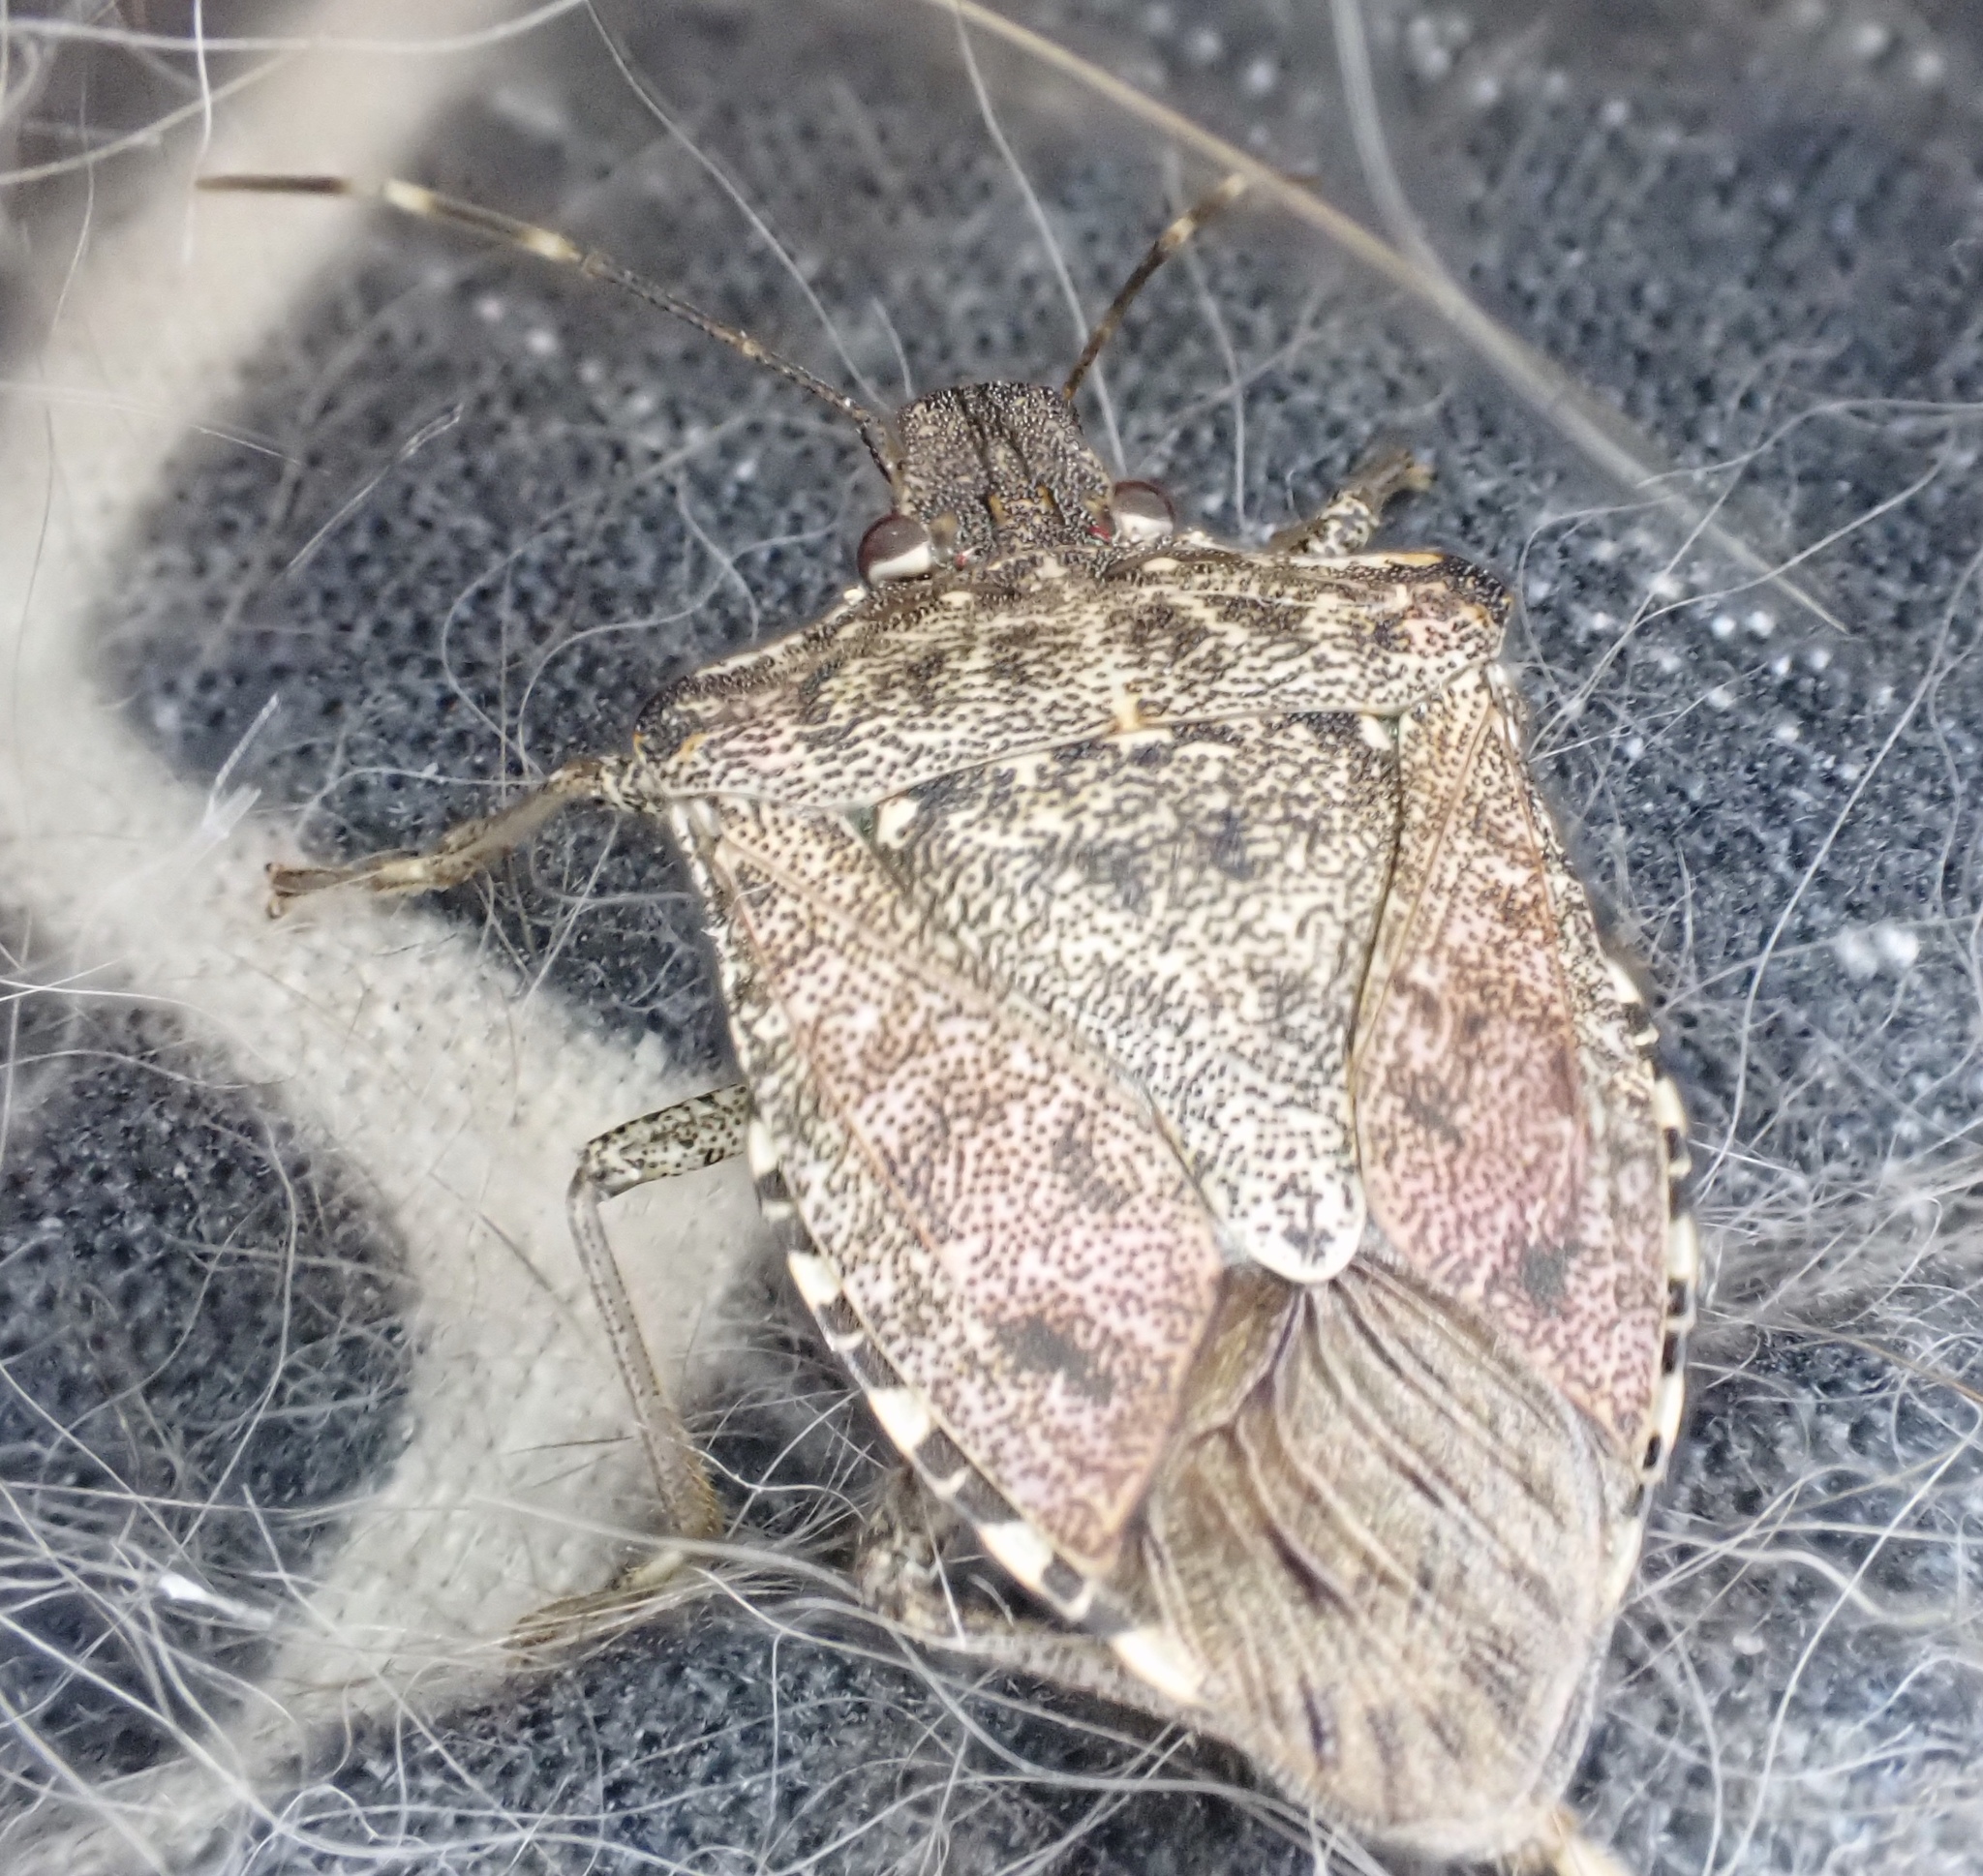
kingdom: Animalia
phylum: Arthropoda
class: Insecta
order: Hemiptera
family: Pentatomidae
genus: Halyomorpha
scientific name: Halyomorpha halys
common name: Brown marmorated stink bug
